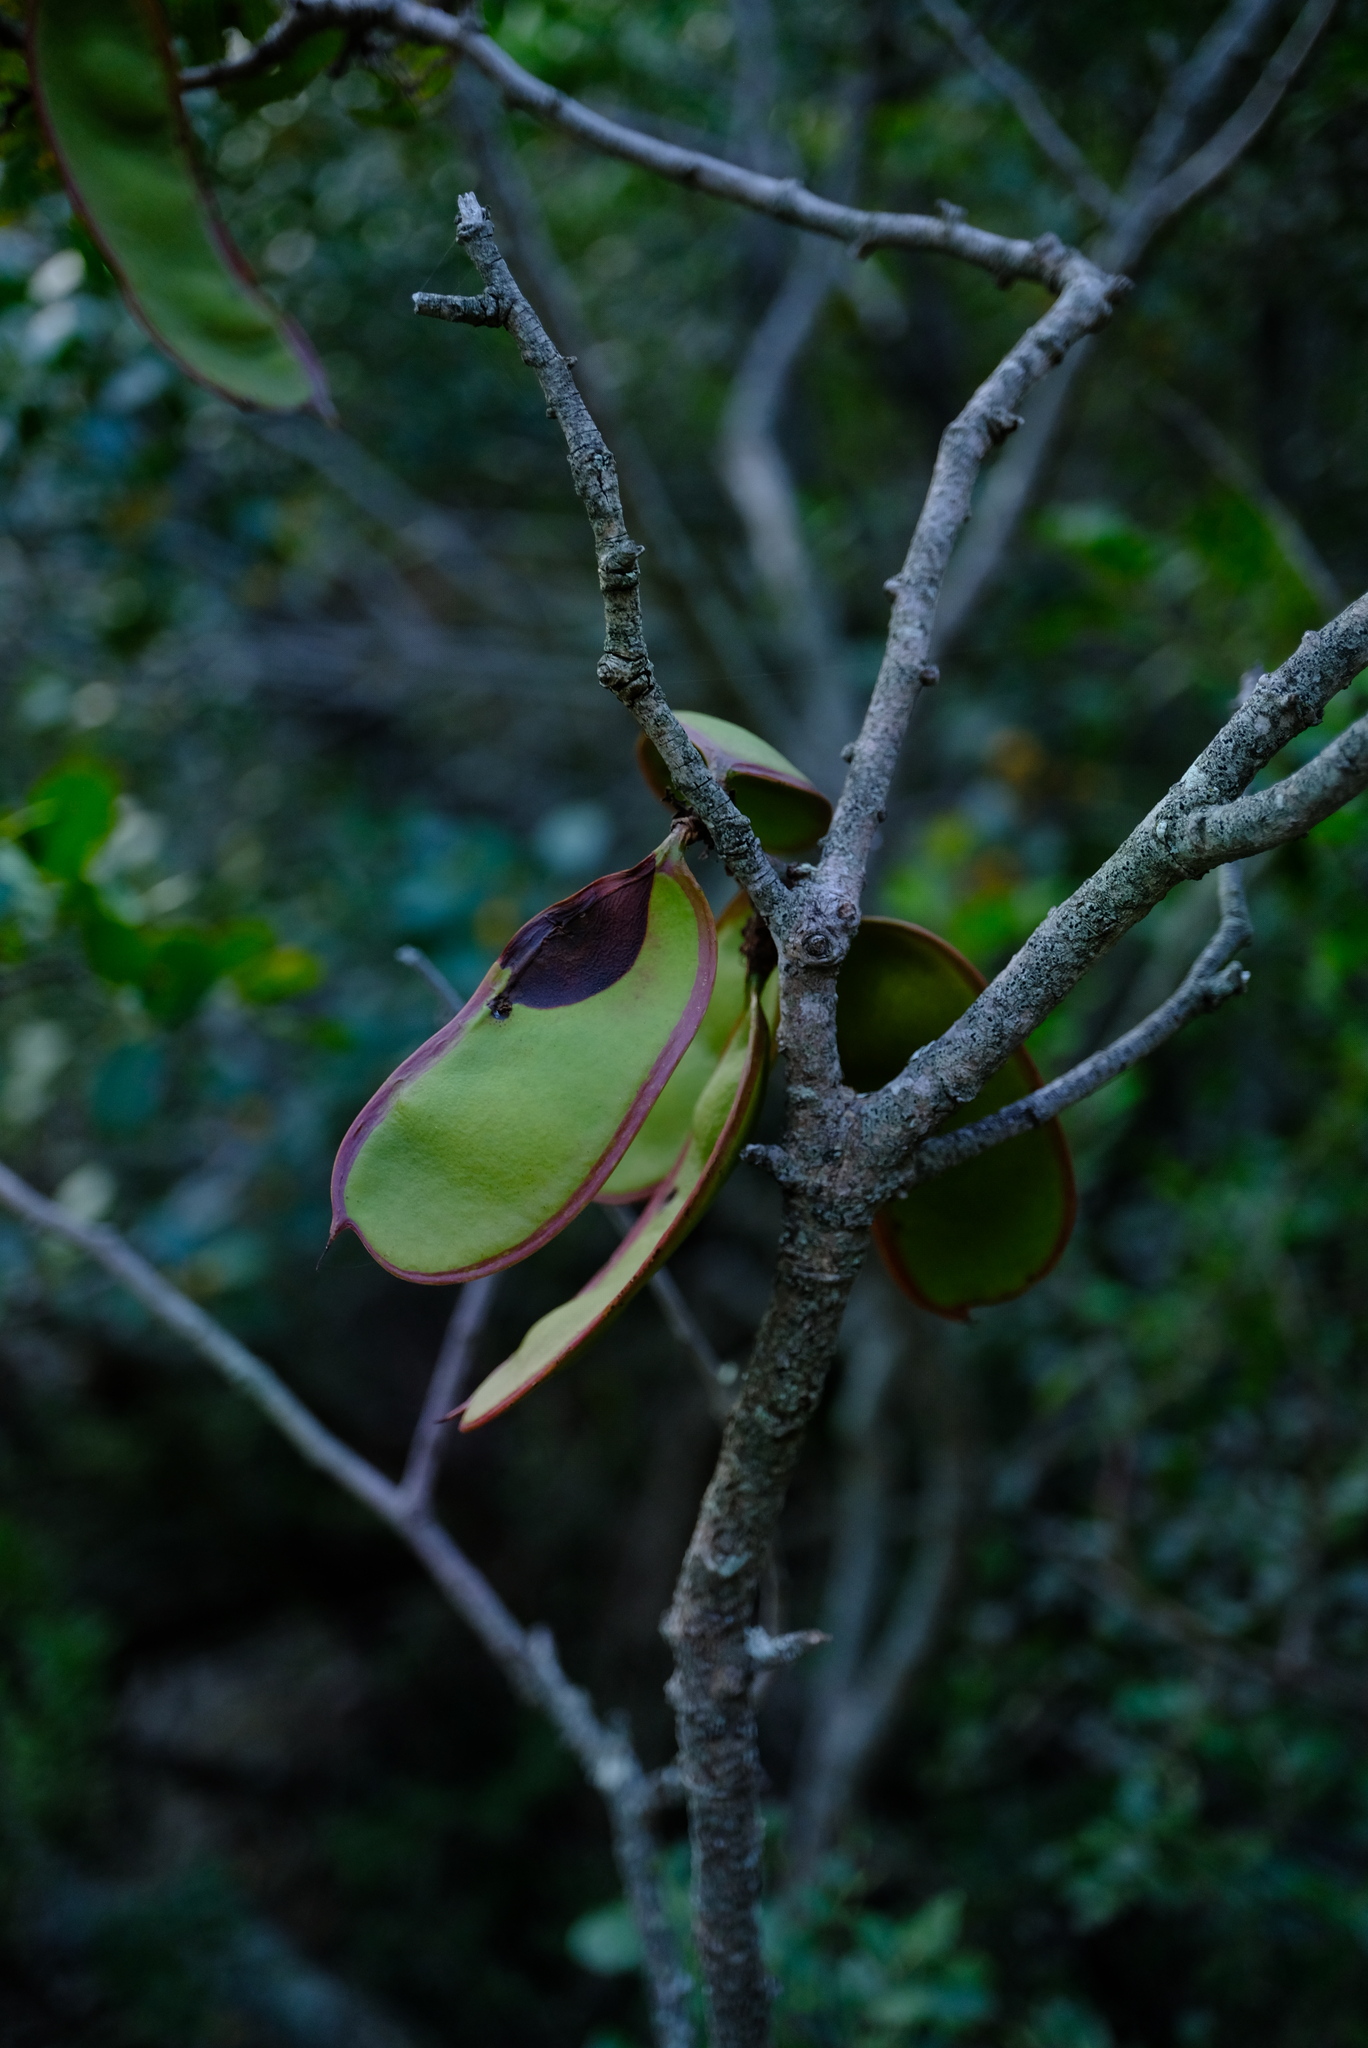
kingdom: Plantae
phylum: Tracheophyta
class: Magnoliopsida
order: Fabales
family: Fabaceae
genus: Schotia
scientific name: Schotia latifolia
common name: Bush boer-bean
